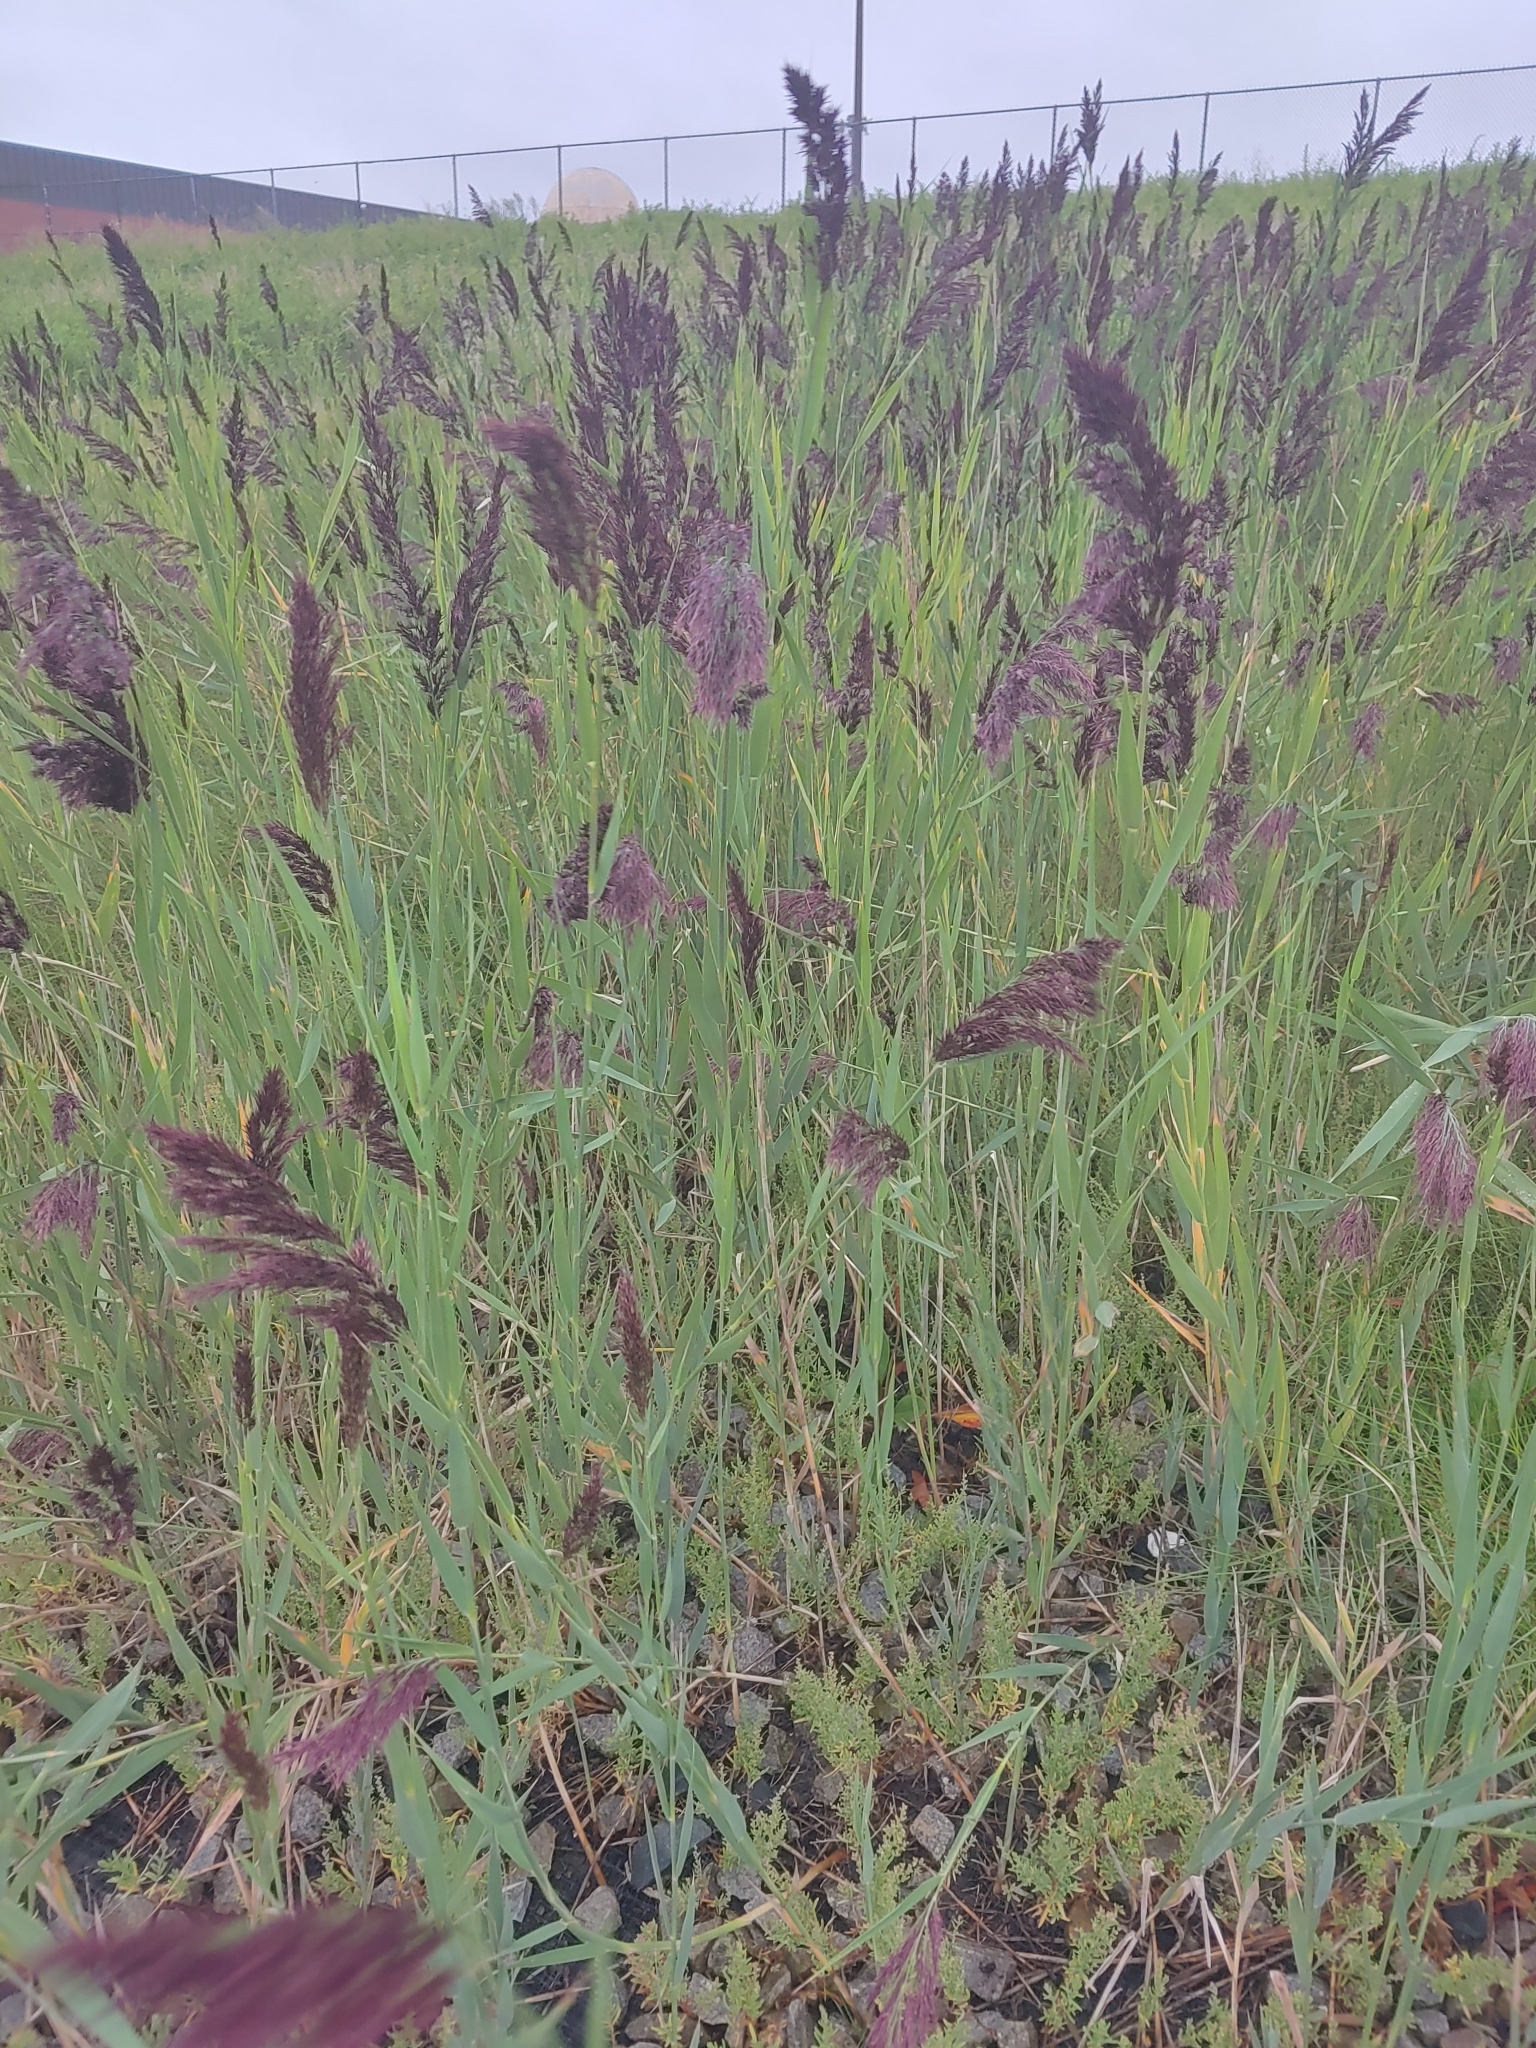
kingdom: Plantae
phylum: Tracheophyta
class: Liliopsida
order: Poales
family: Poaceae
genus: Phragmites
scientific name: Phragmites australis
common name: Common reed
